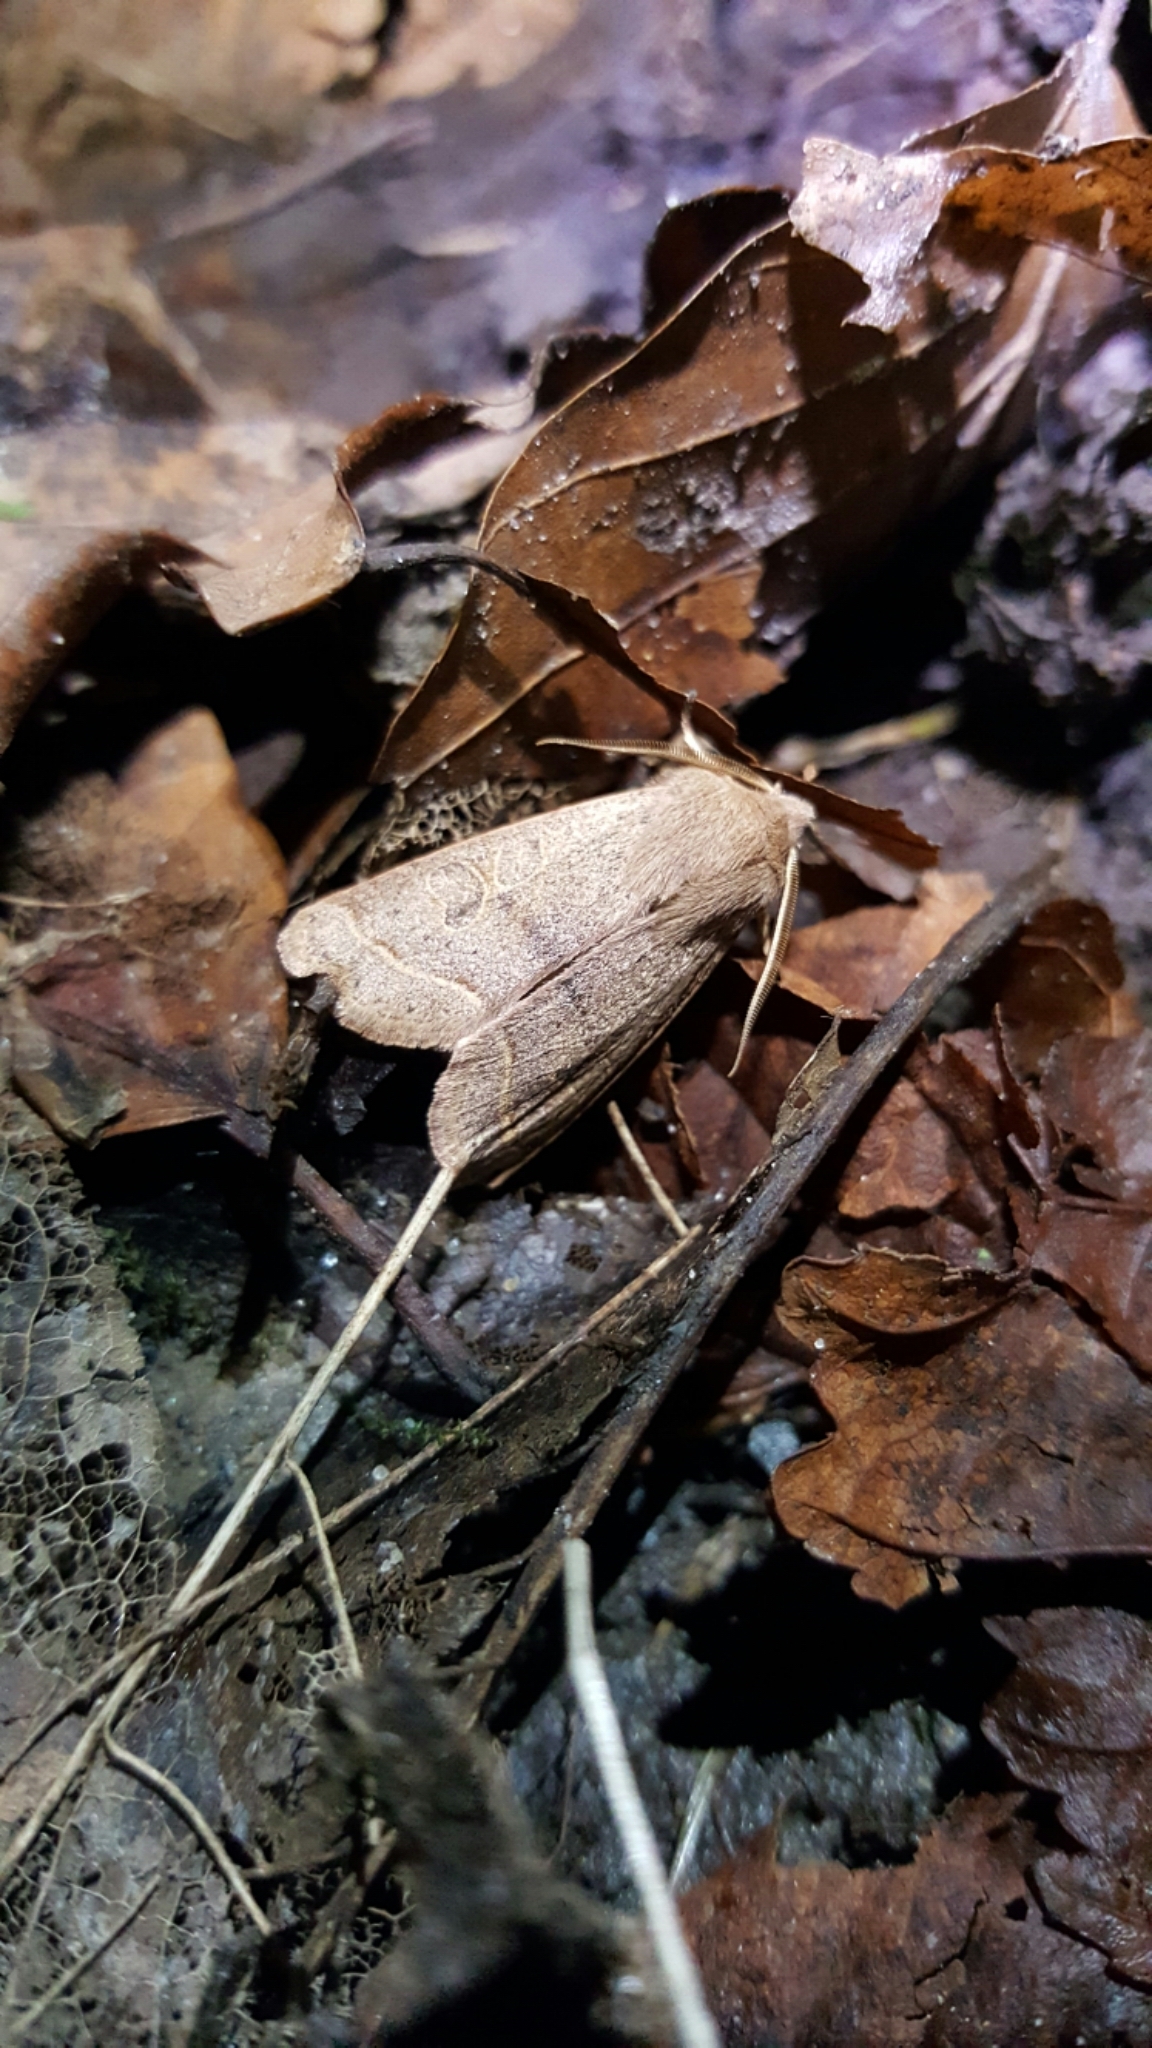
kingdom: Animalia
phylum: Arthropoda
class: Insecta
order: Lepidoptera
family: Noctuidae
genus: Orthosia
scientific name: Orthosia cerasi
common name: Common quaker
